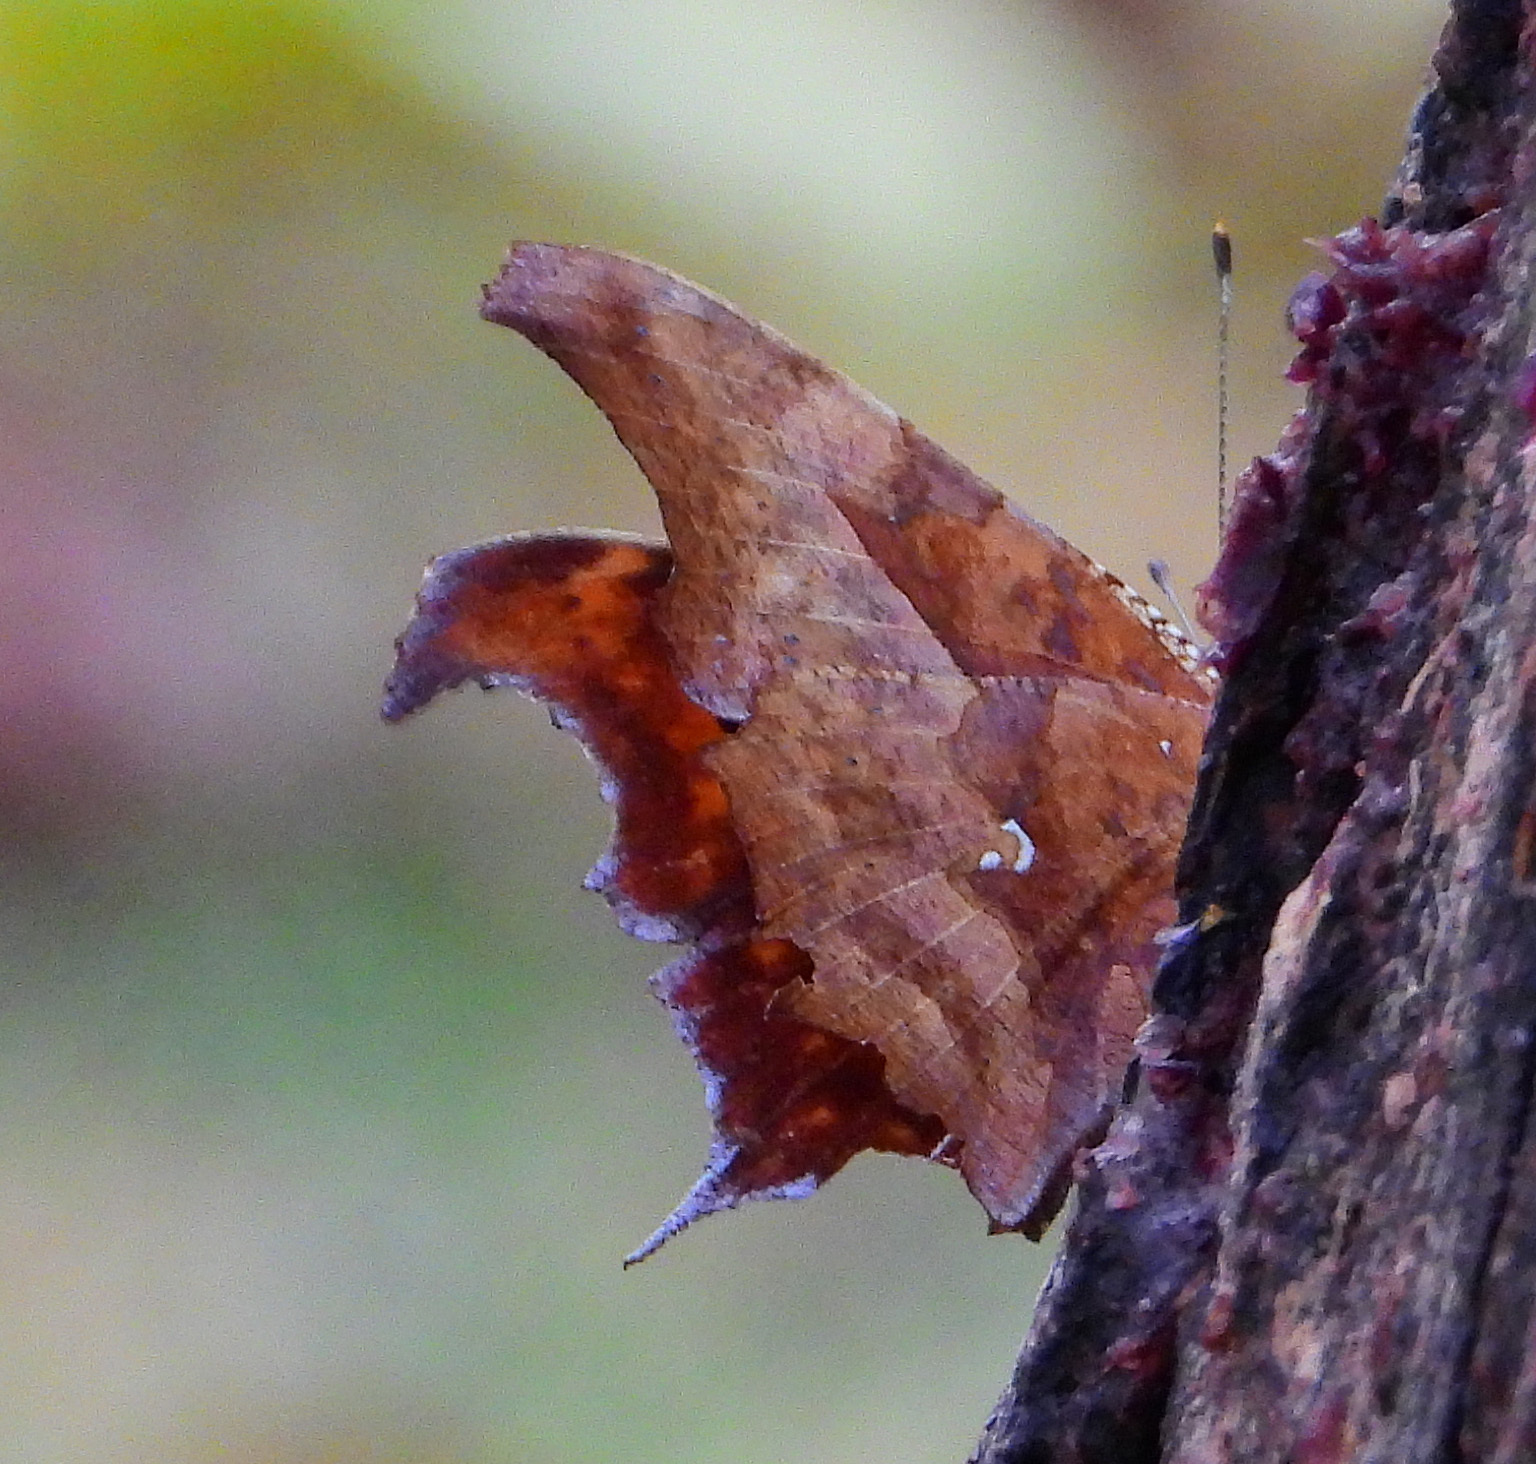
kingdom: Animalia
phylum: Arthropoda
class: Insecta
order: Lepidoptera
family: Nymphalidae
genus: Polygonia
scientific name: Polygonia interrogationis
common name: Question mark
